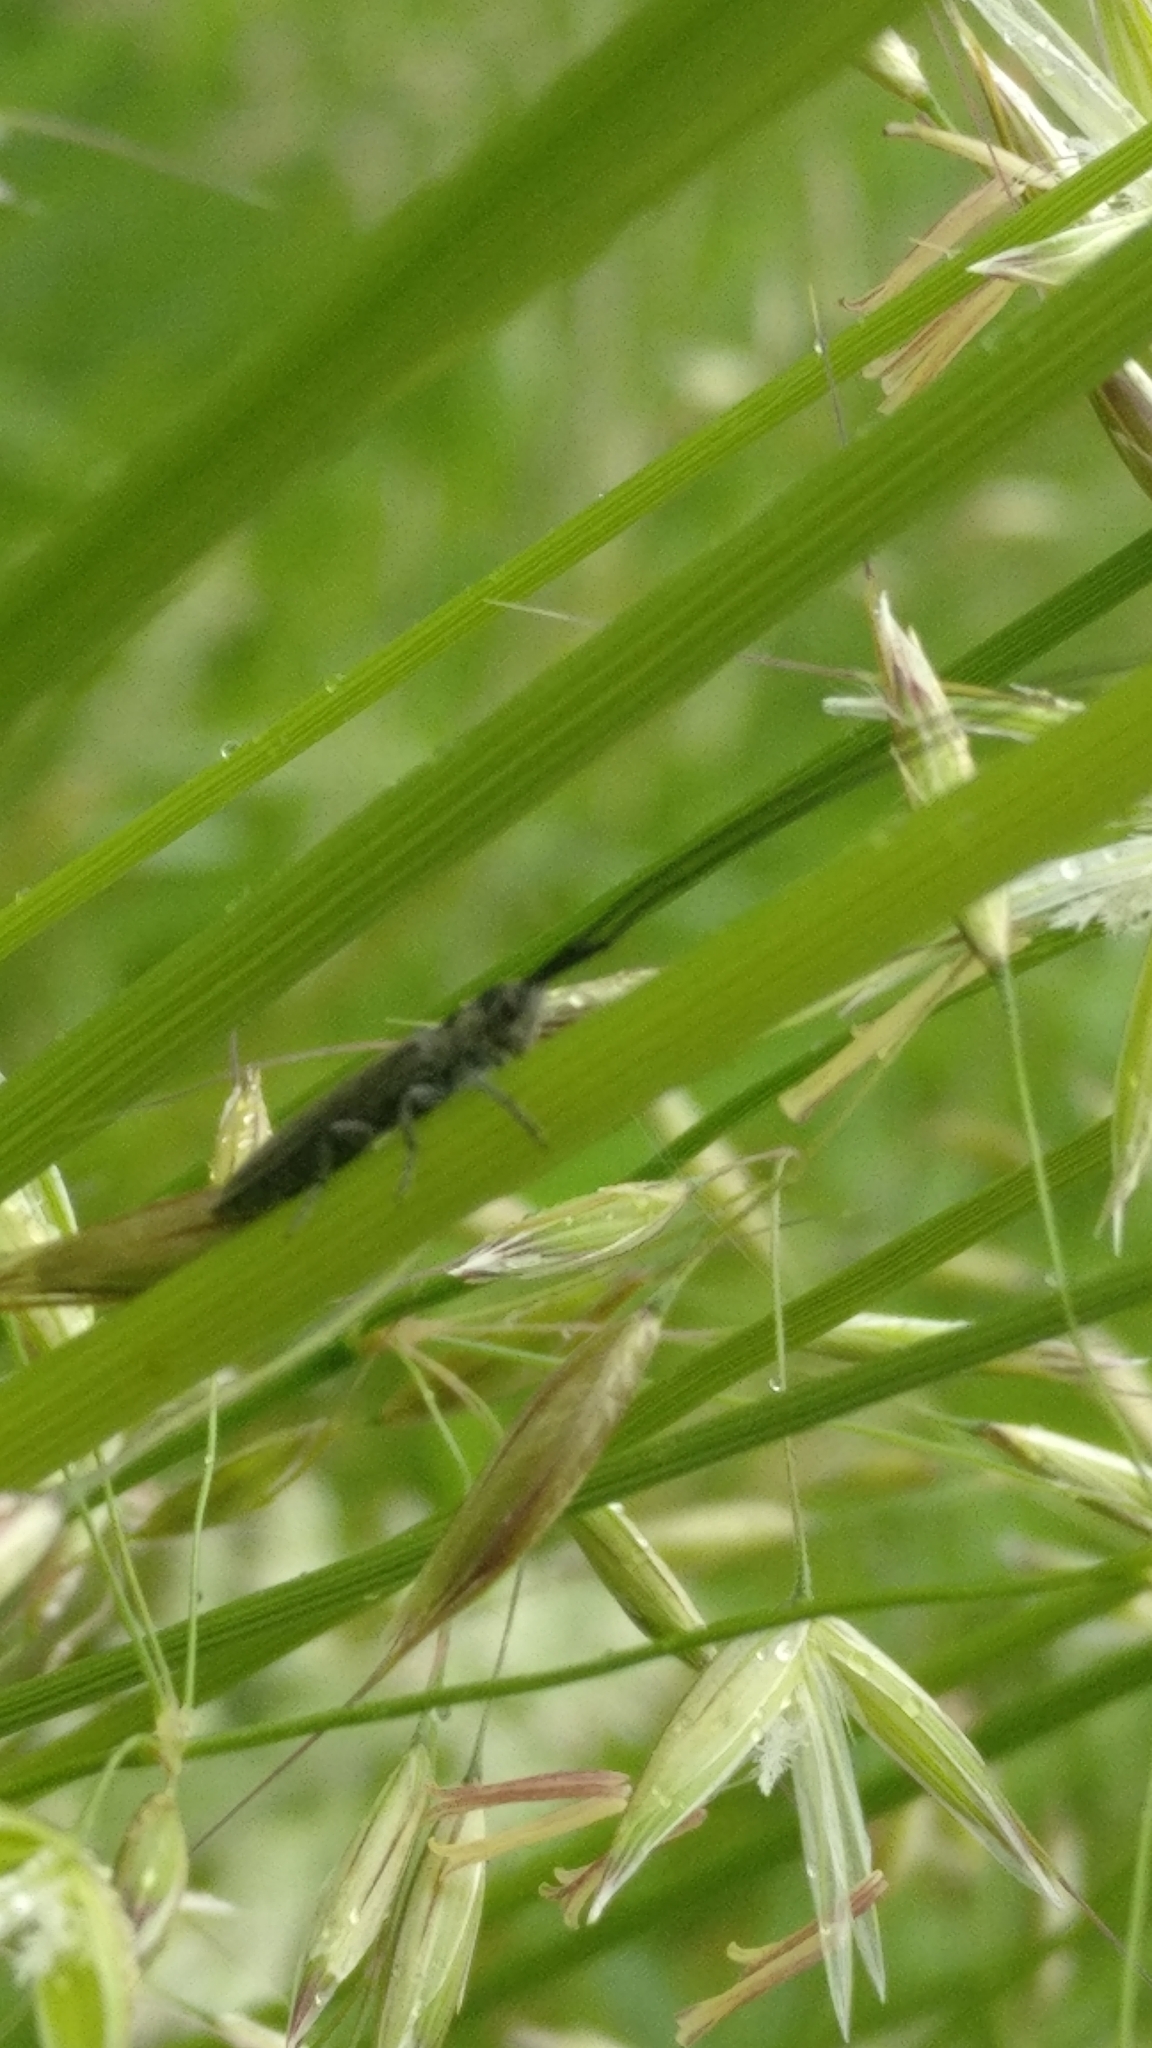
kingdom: Animalia
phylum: Arthropoda
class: Insecta
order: Coleoptera
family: Cerambycidae
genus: Calamobius
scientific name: Calamobius filum
